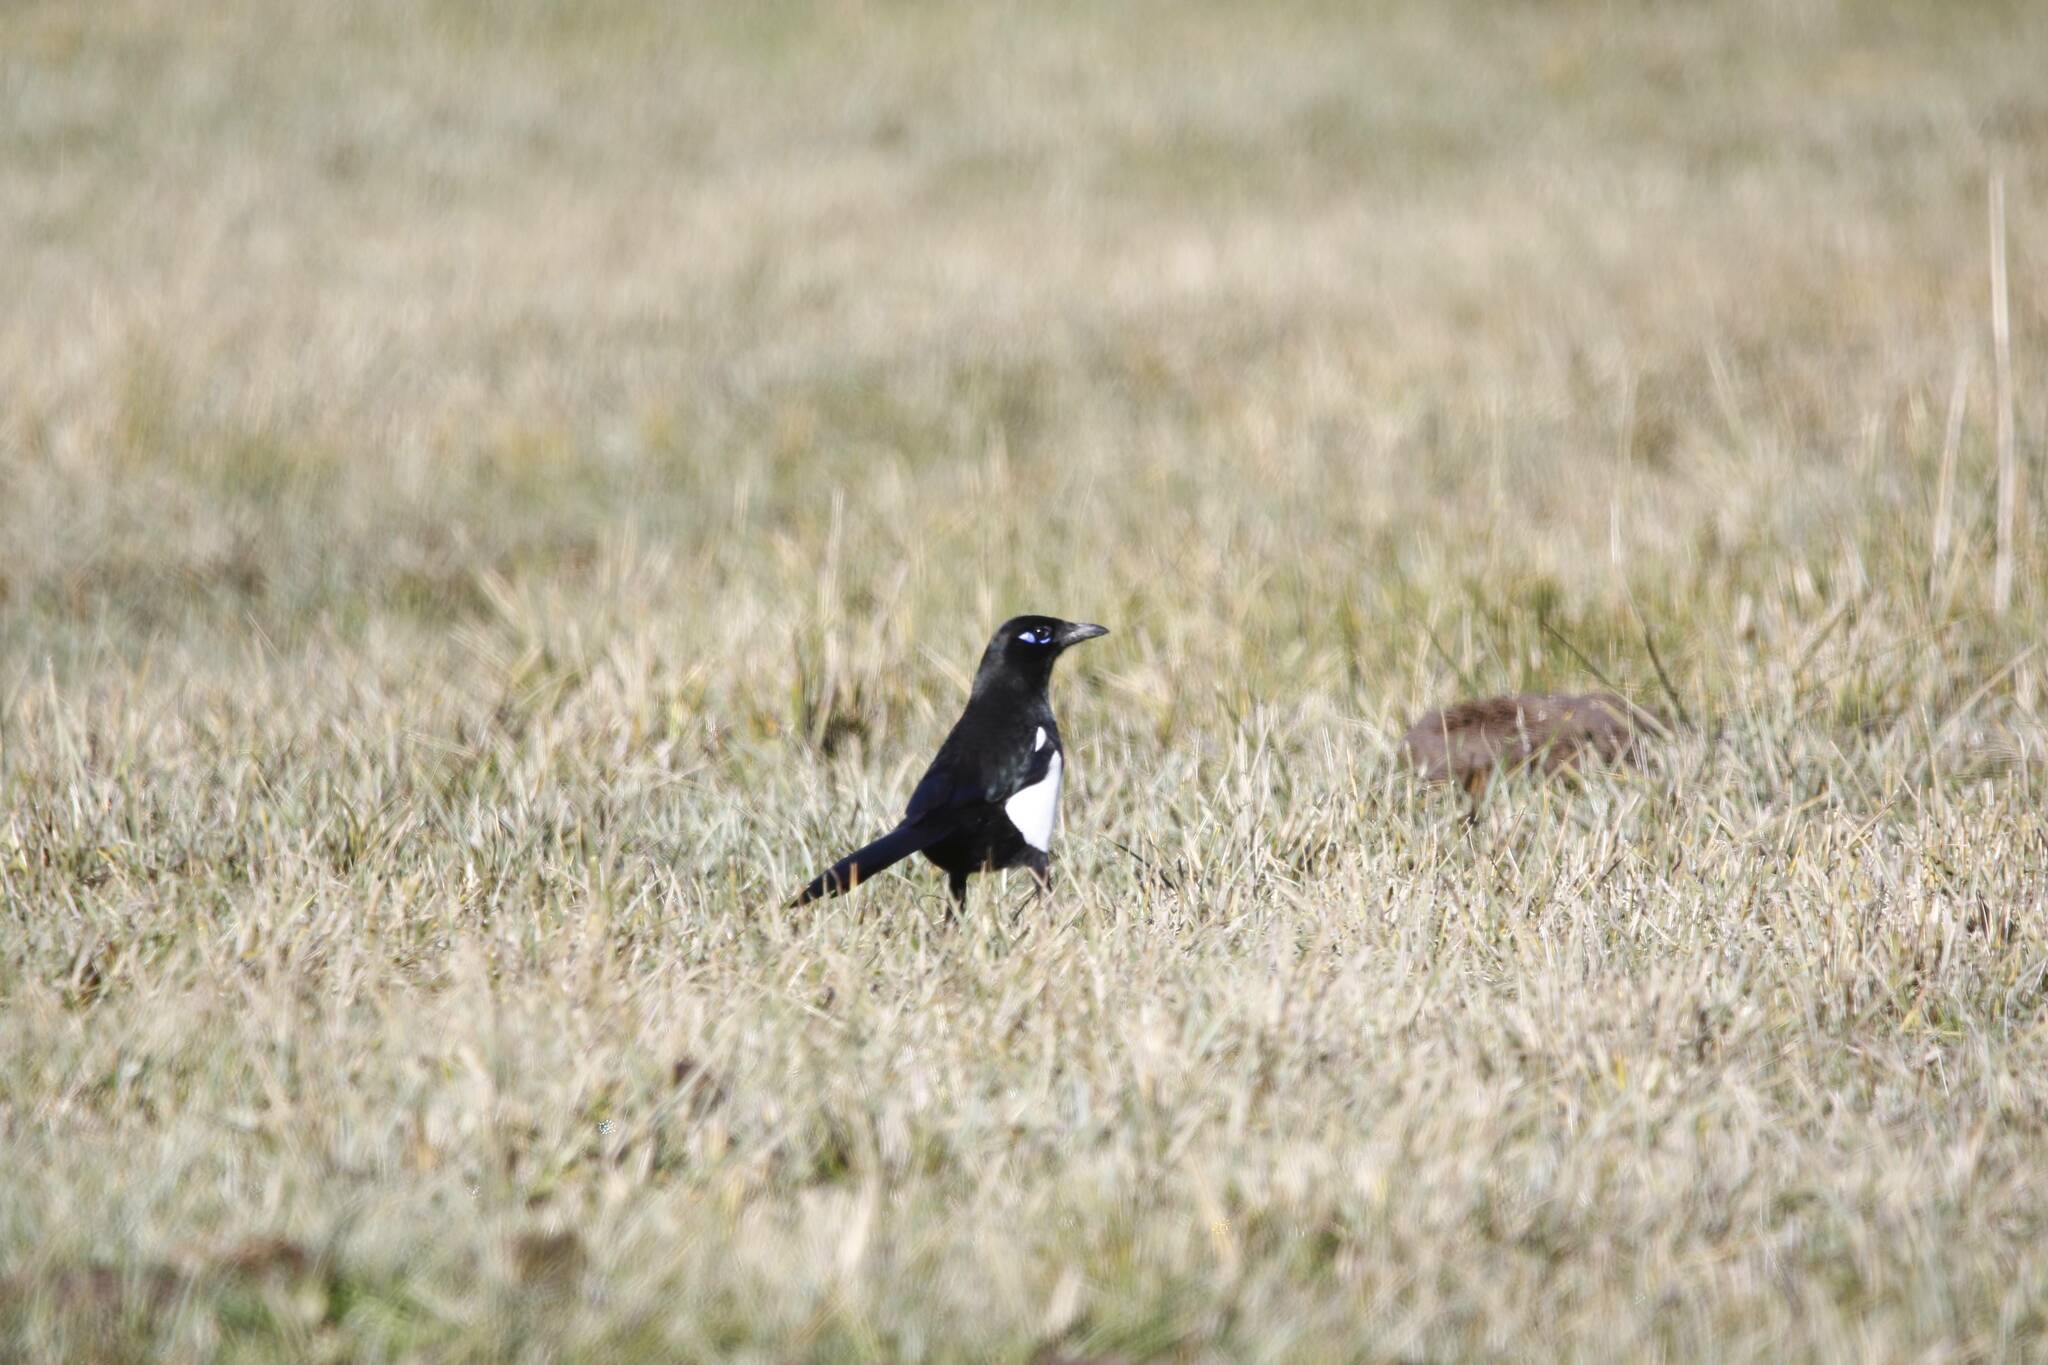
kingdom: Animalia
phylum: Chordata
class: Aves
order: Passeriformes
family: Corvidae
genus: Pica
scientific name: Pica mauritanica
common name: Maghreb magpie
